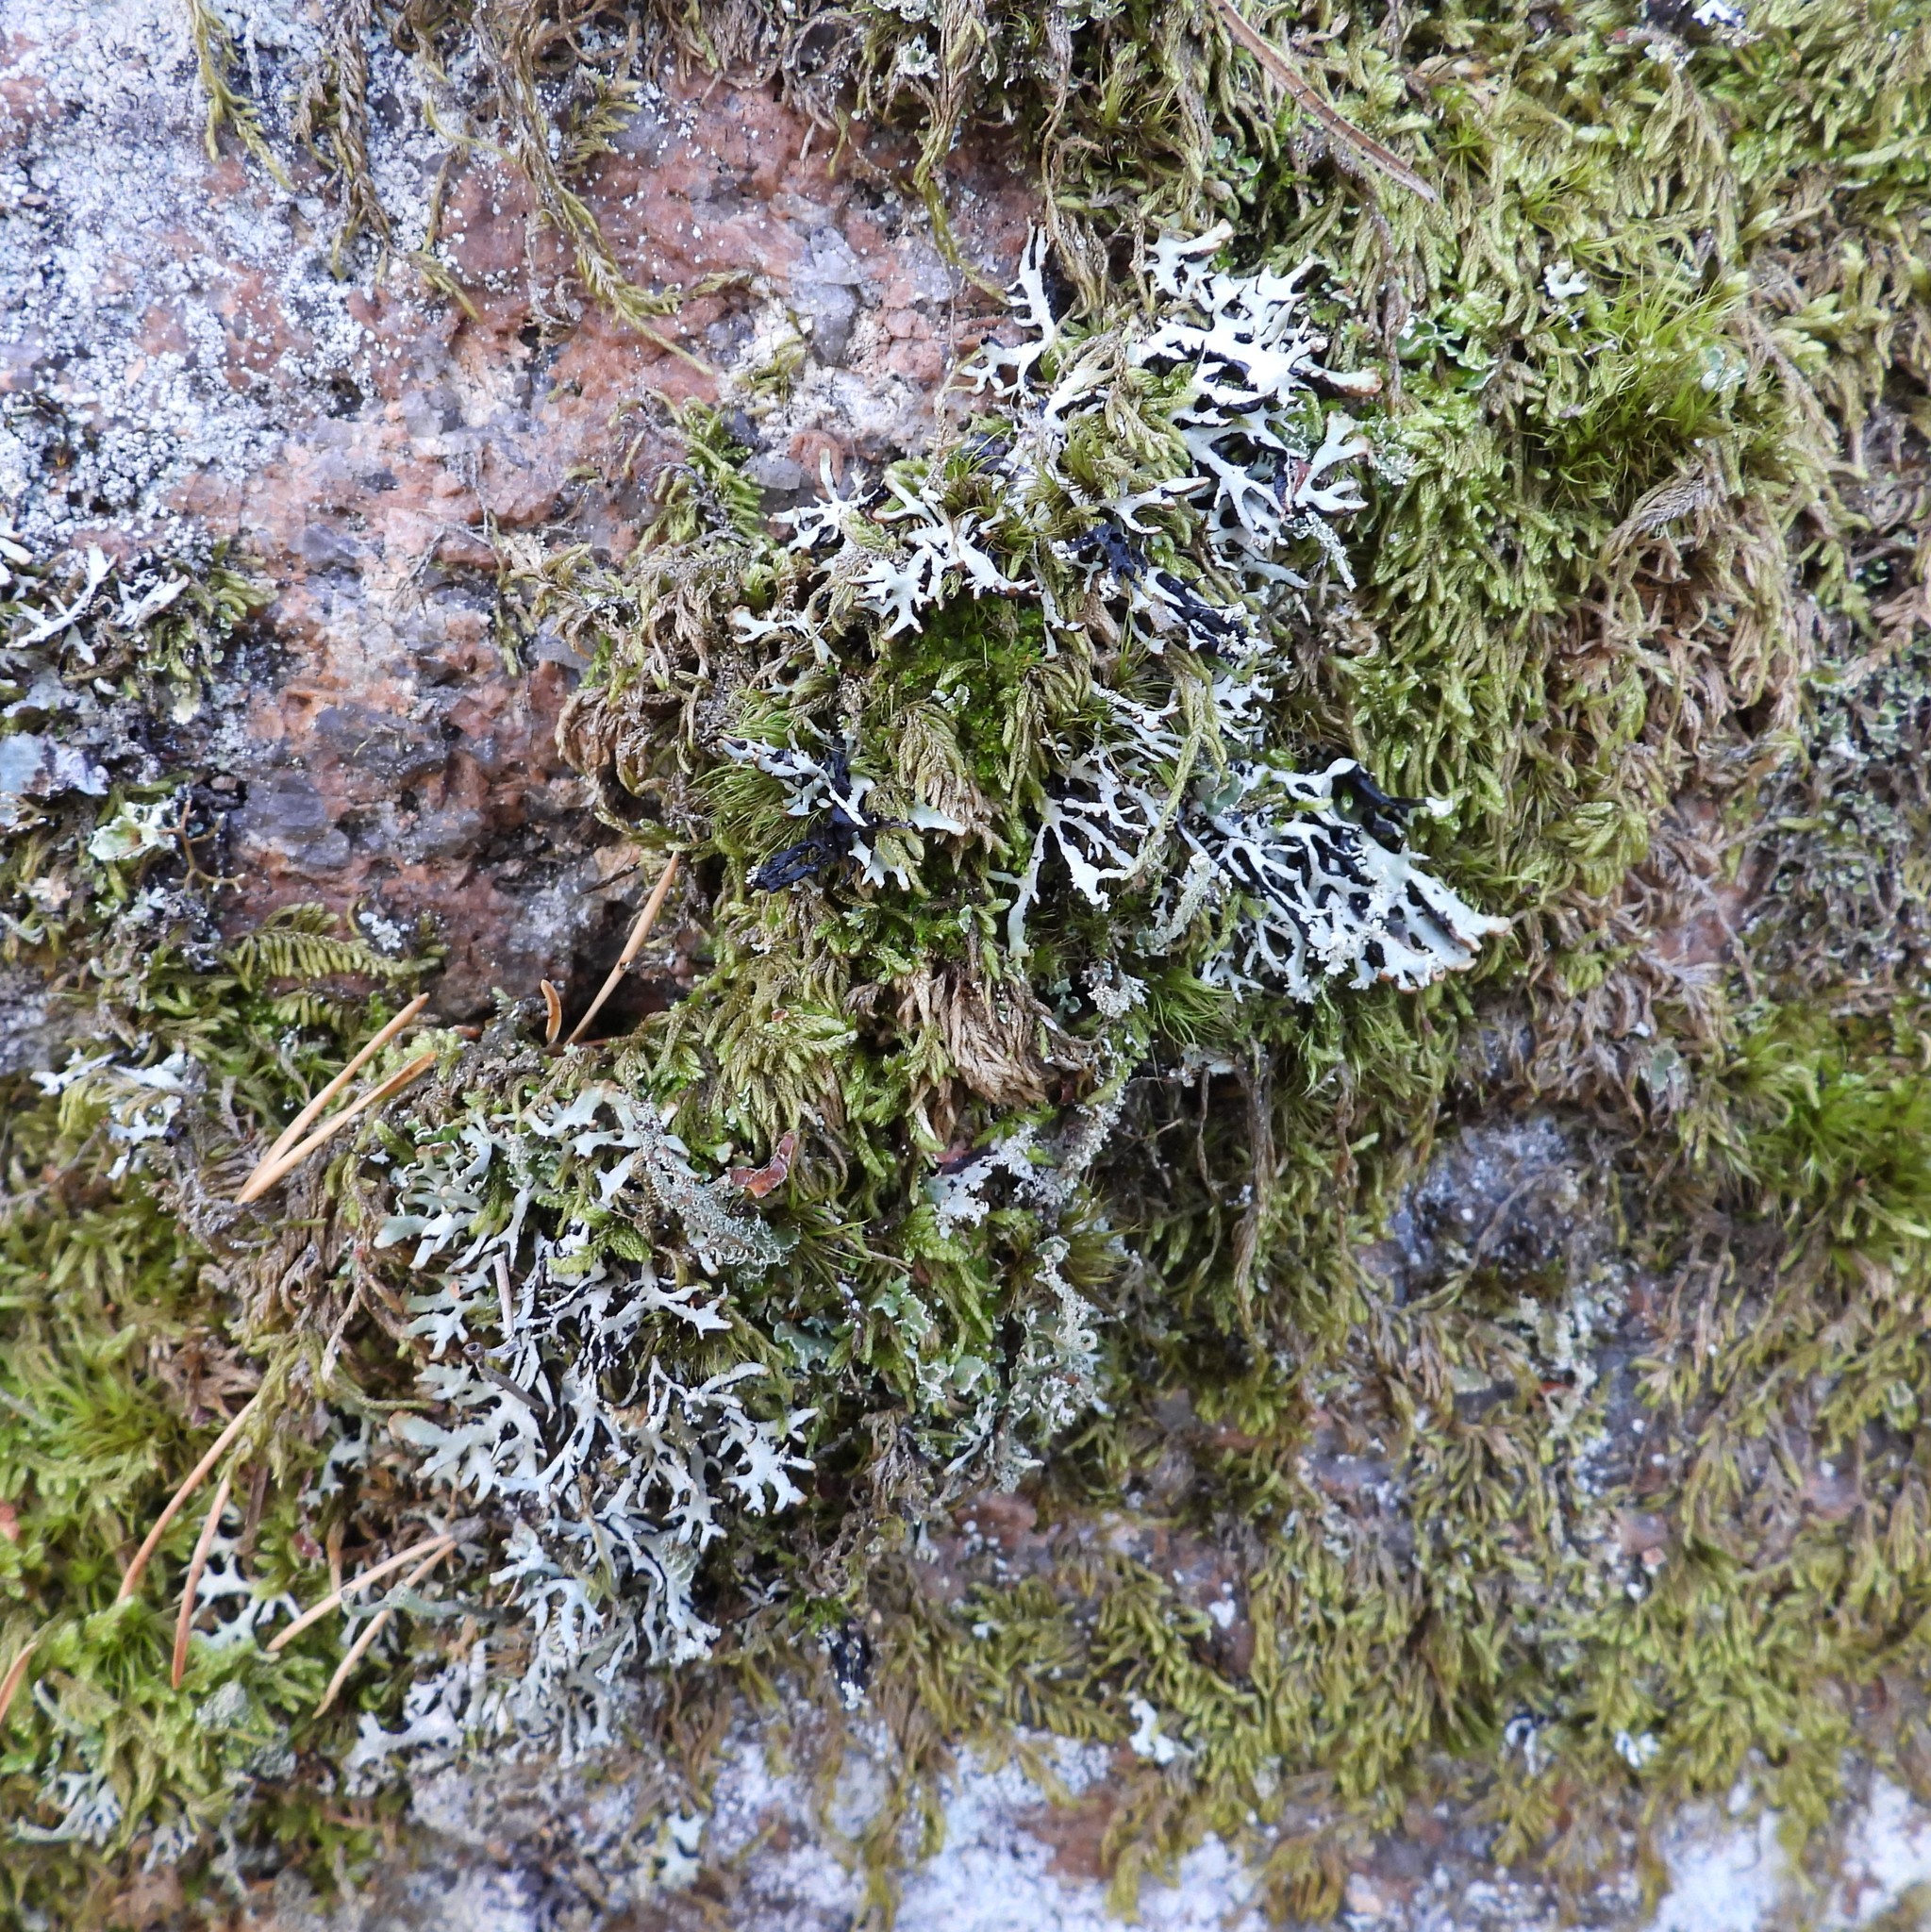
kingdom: Fungi
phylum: Ascomycota
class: Lecanoromycetes
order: Lecanorales
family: Parmeliaceae
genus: Hypogymnia
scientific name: Hypogymnia vittata
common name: Brownish monk's-hood lichen
